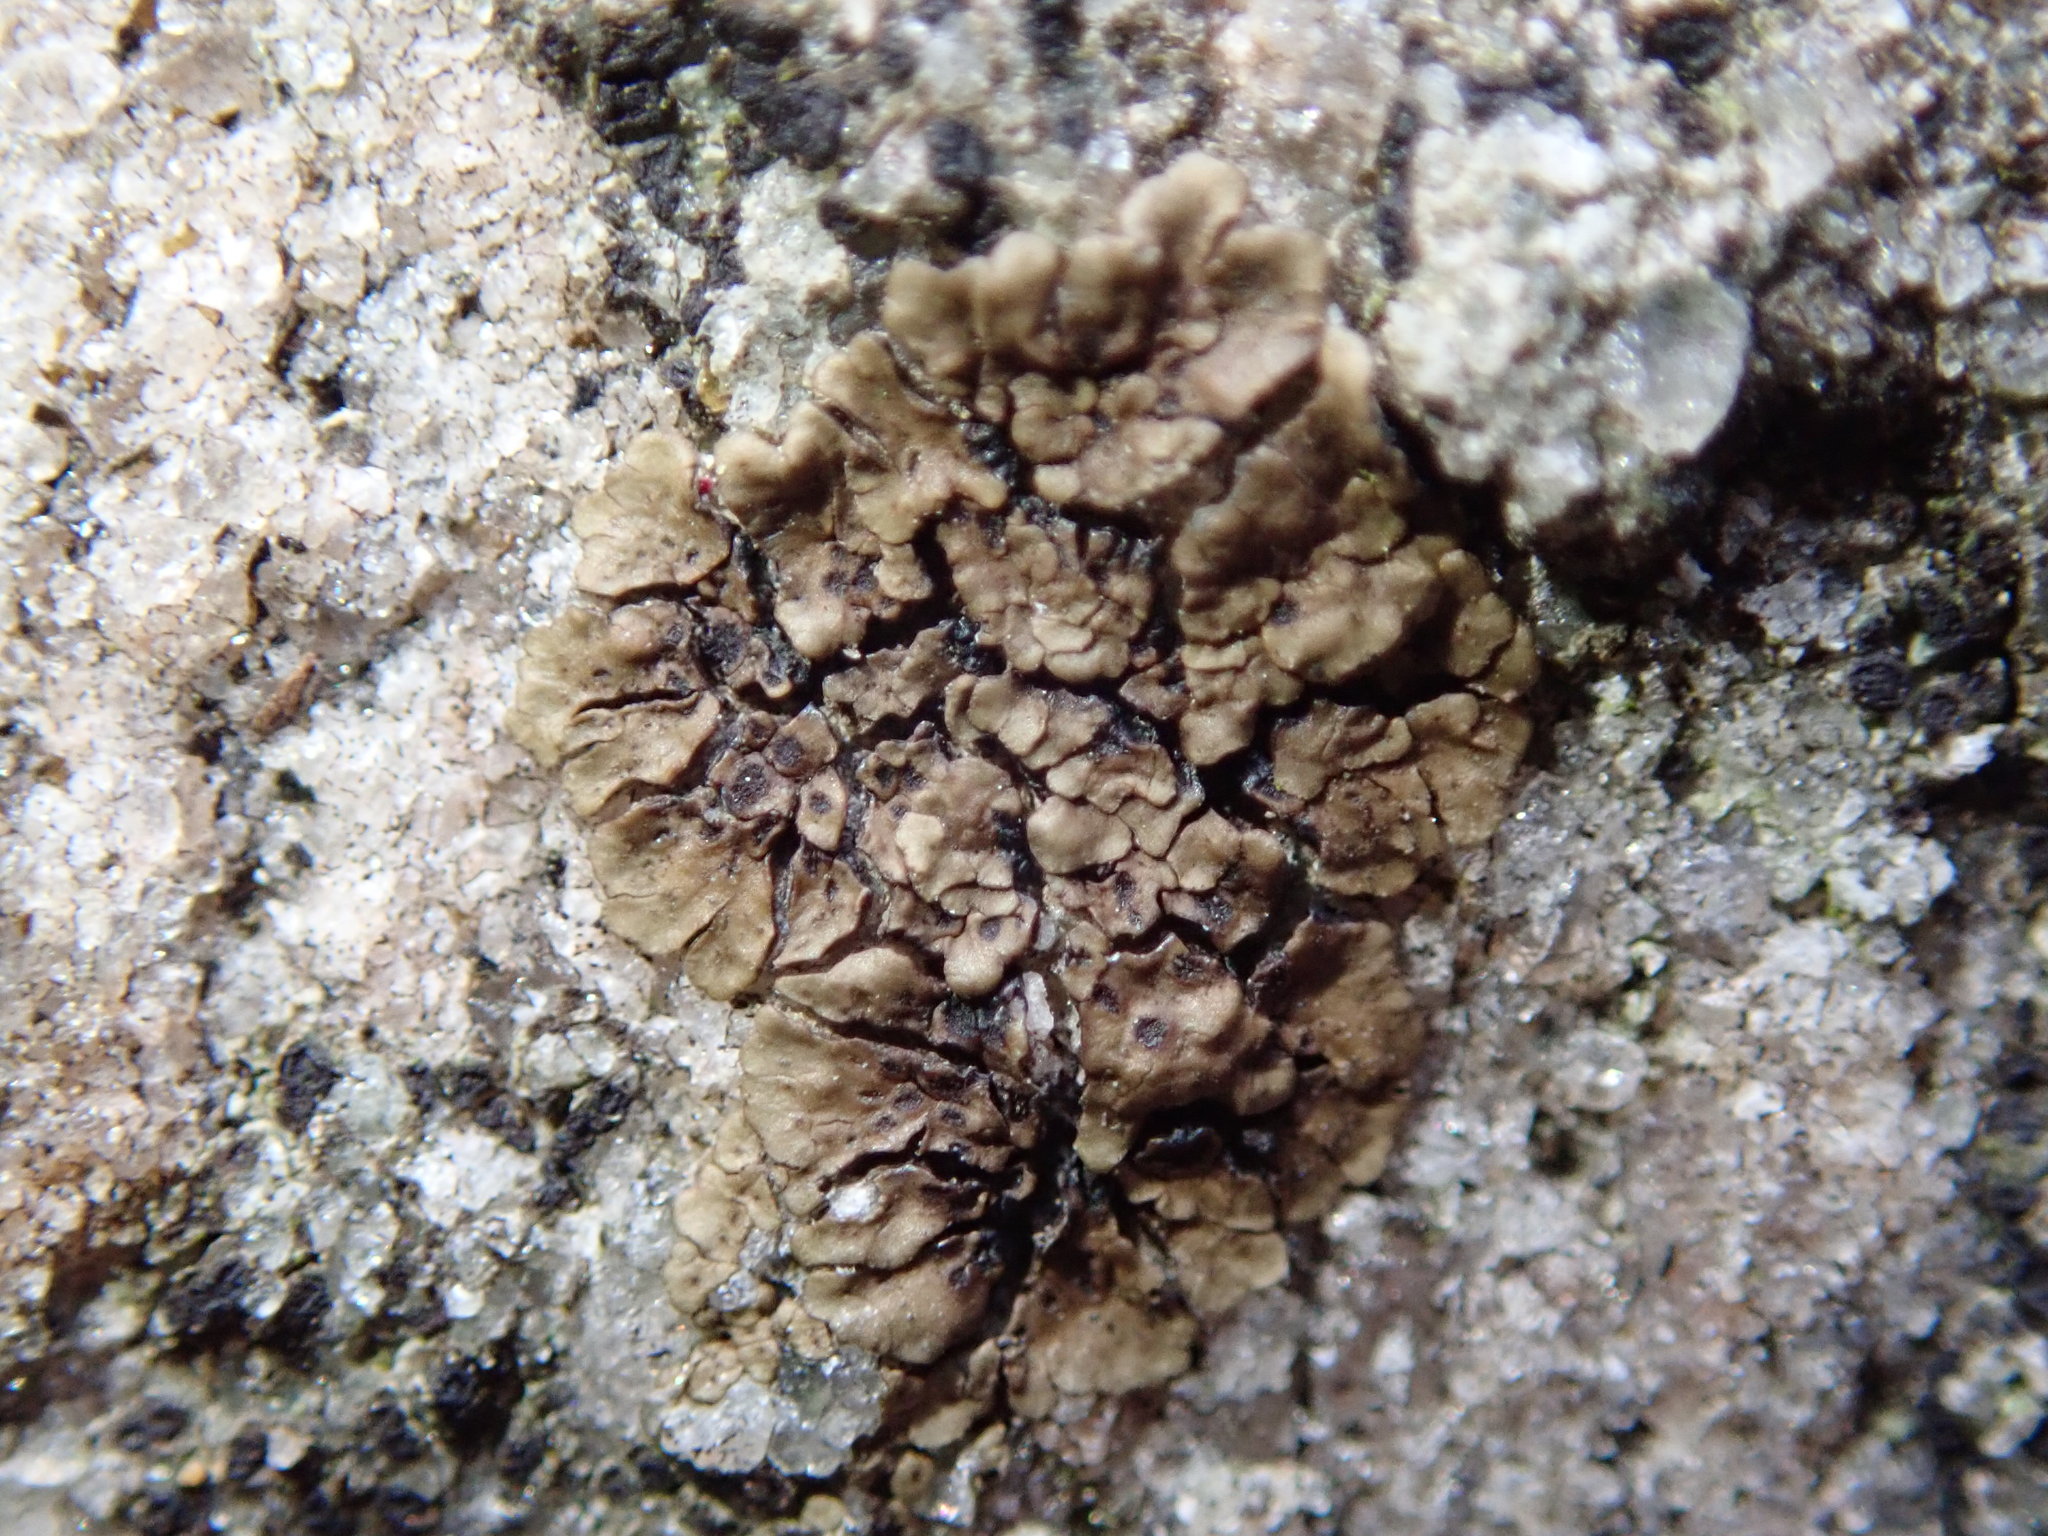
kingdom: Fungi
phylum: Ascomycota
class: Lecanoromycetes
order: Acarosporales
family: Acarosporaceae
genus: Acarospora
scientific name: Acarospora fuscata
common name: Brown cobblestone lichen
